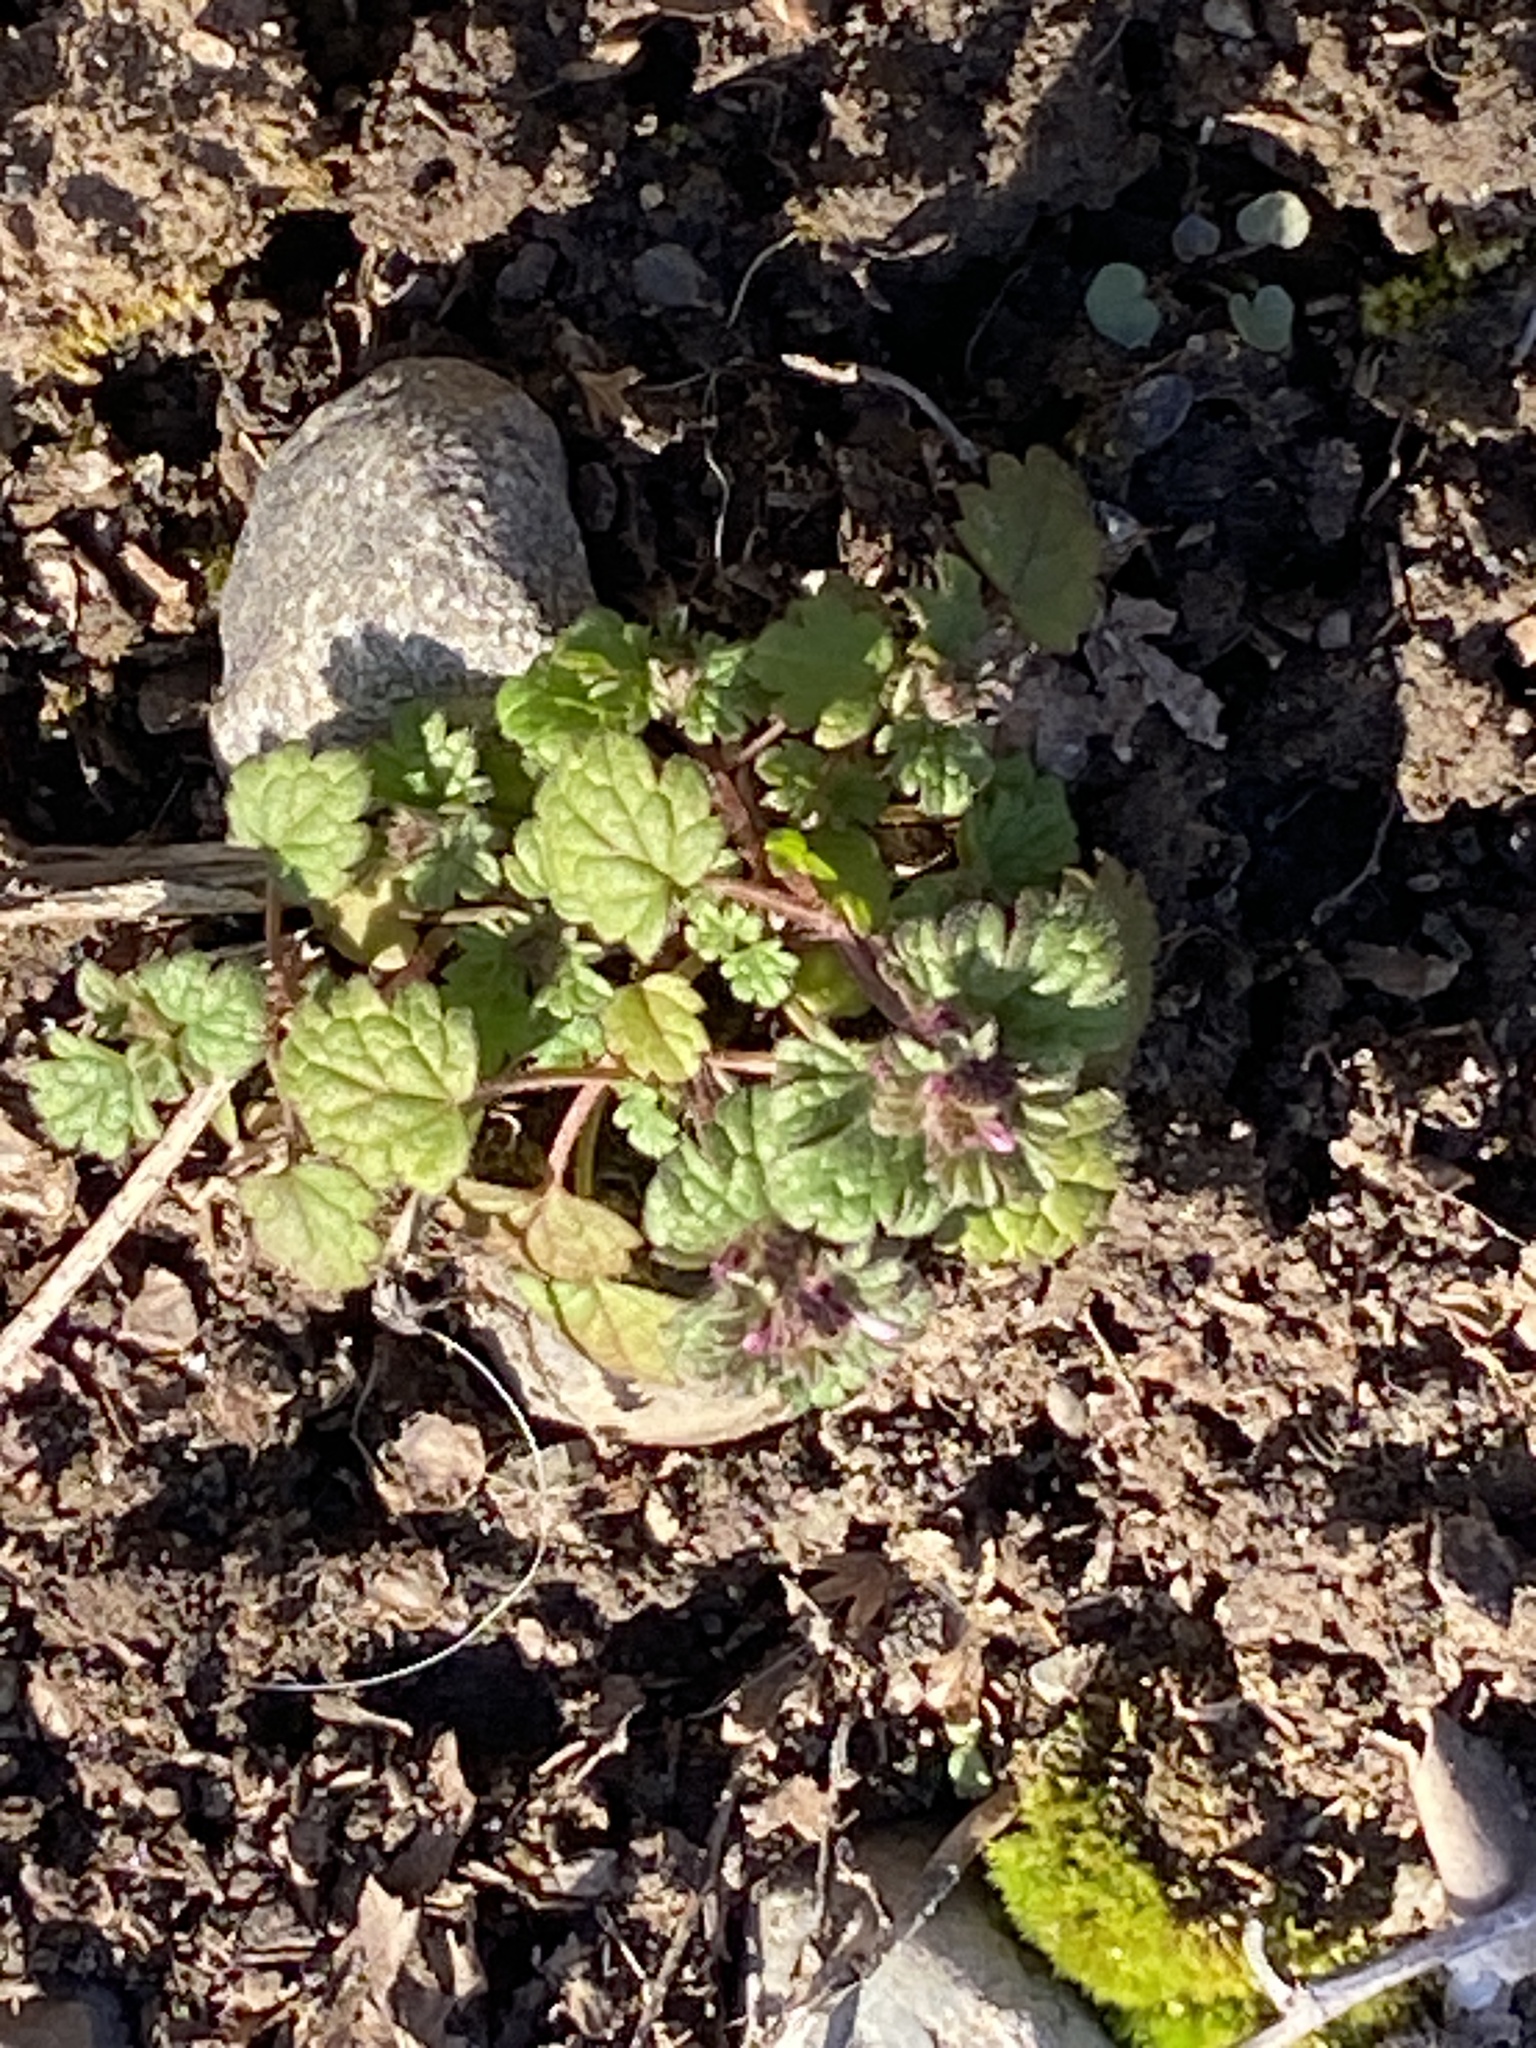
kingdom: Plantae
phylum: Tracheophyta
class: Magnoliopsida
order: Lamiales
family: Lamiaceae
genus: Lamium
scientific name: Lamium amplexicaule
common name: Henbit dead-nettle
